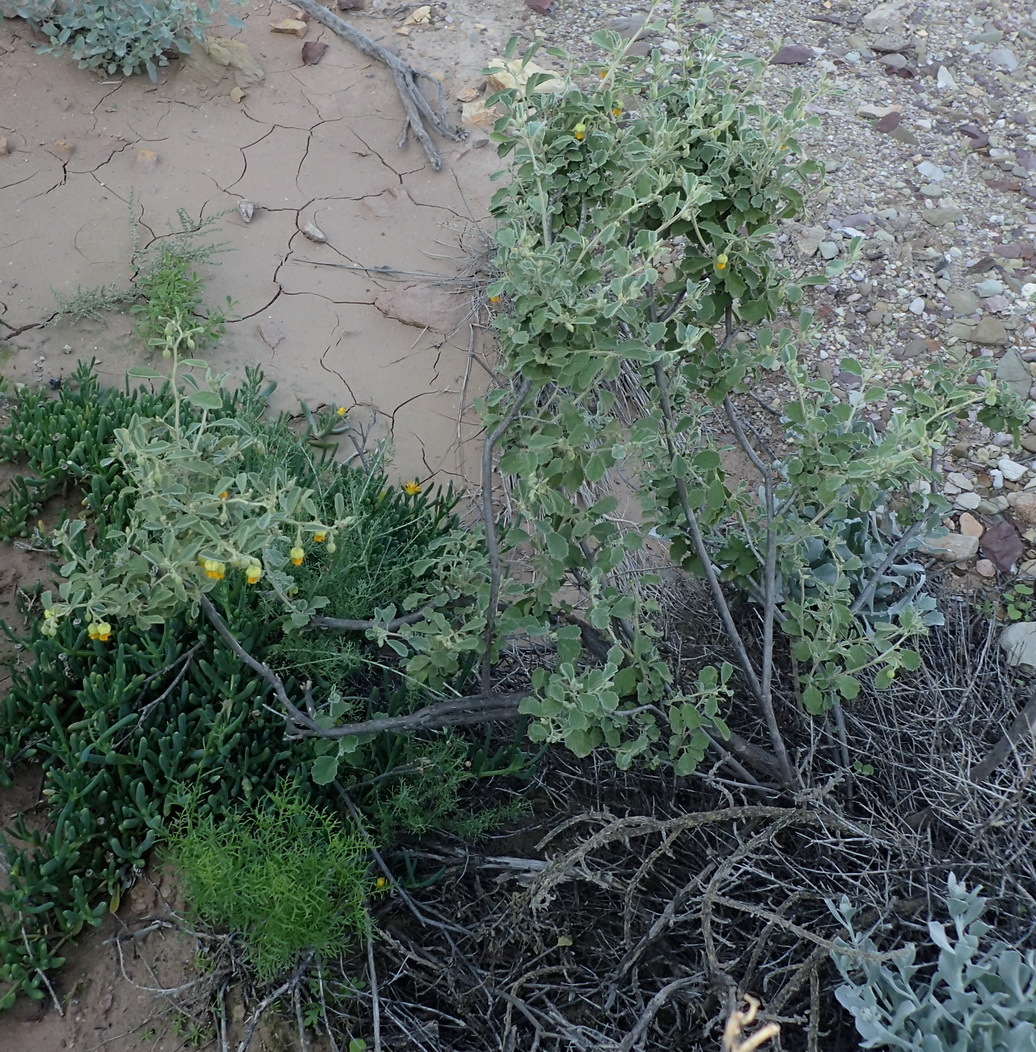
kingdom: Plantae
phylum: Tracheophyta
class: Magnoliopsida
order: Malvales
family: Malvaceae
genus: Hermannia
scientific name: Hermannia althaeifolia
